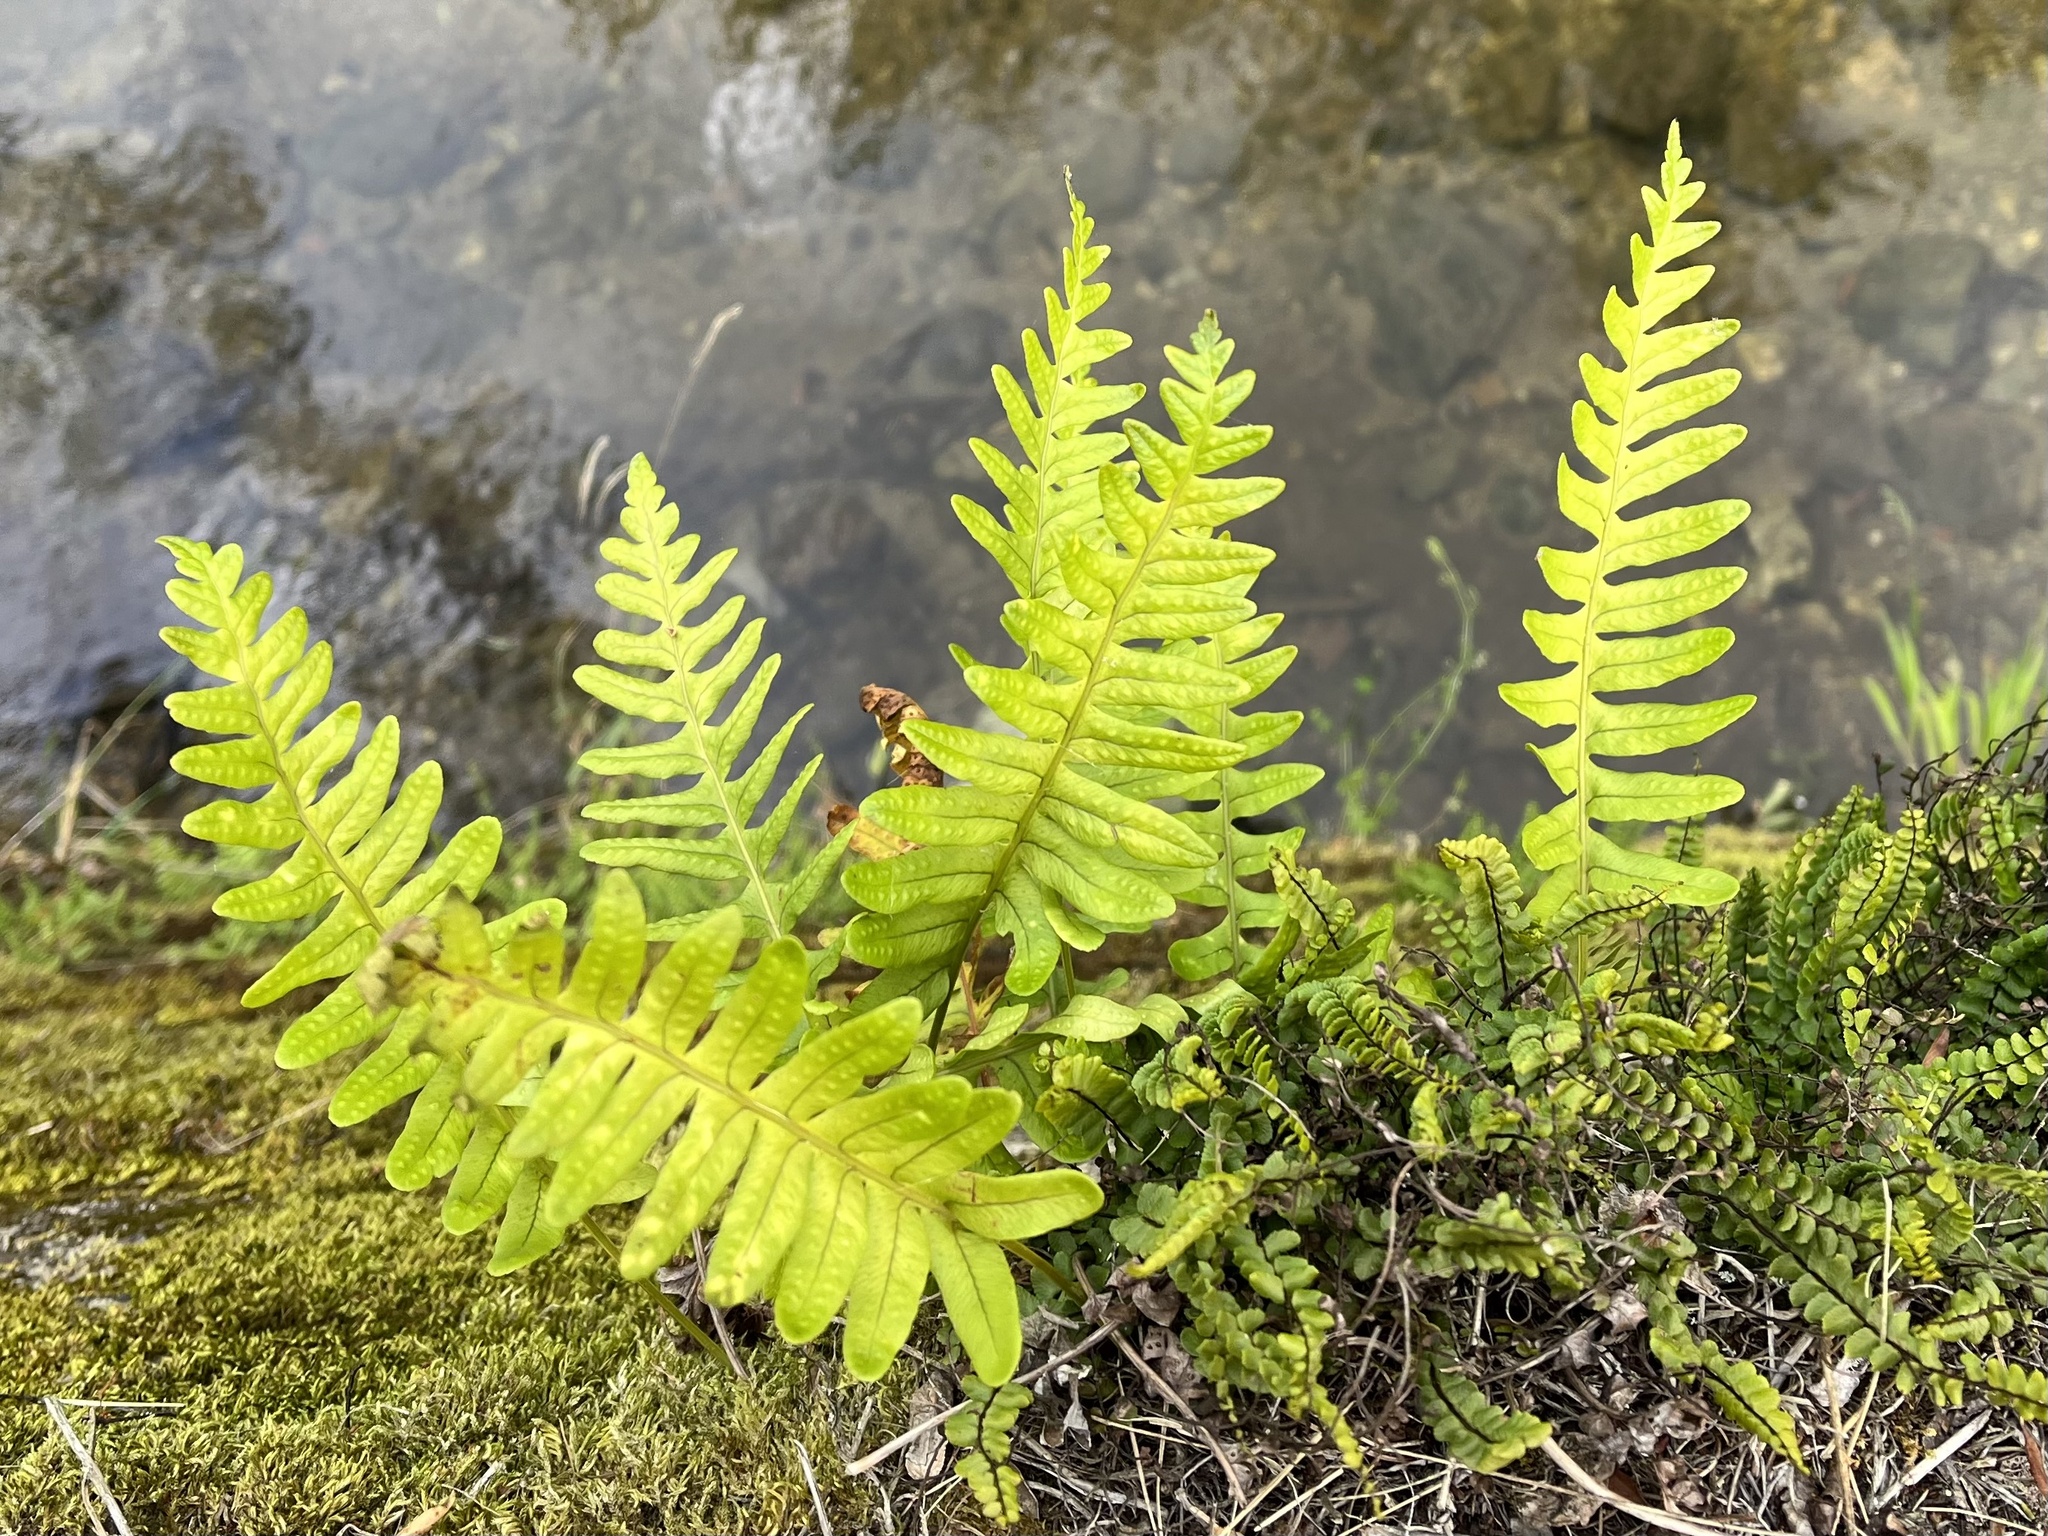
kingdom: Plantae
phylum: Tracheophyta
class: Polypodiopsida
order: Polypodiales
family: Polypodiaceae
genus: Polypodium
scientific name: Polypodium vulgare
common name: Common polypody
